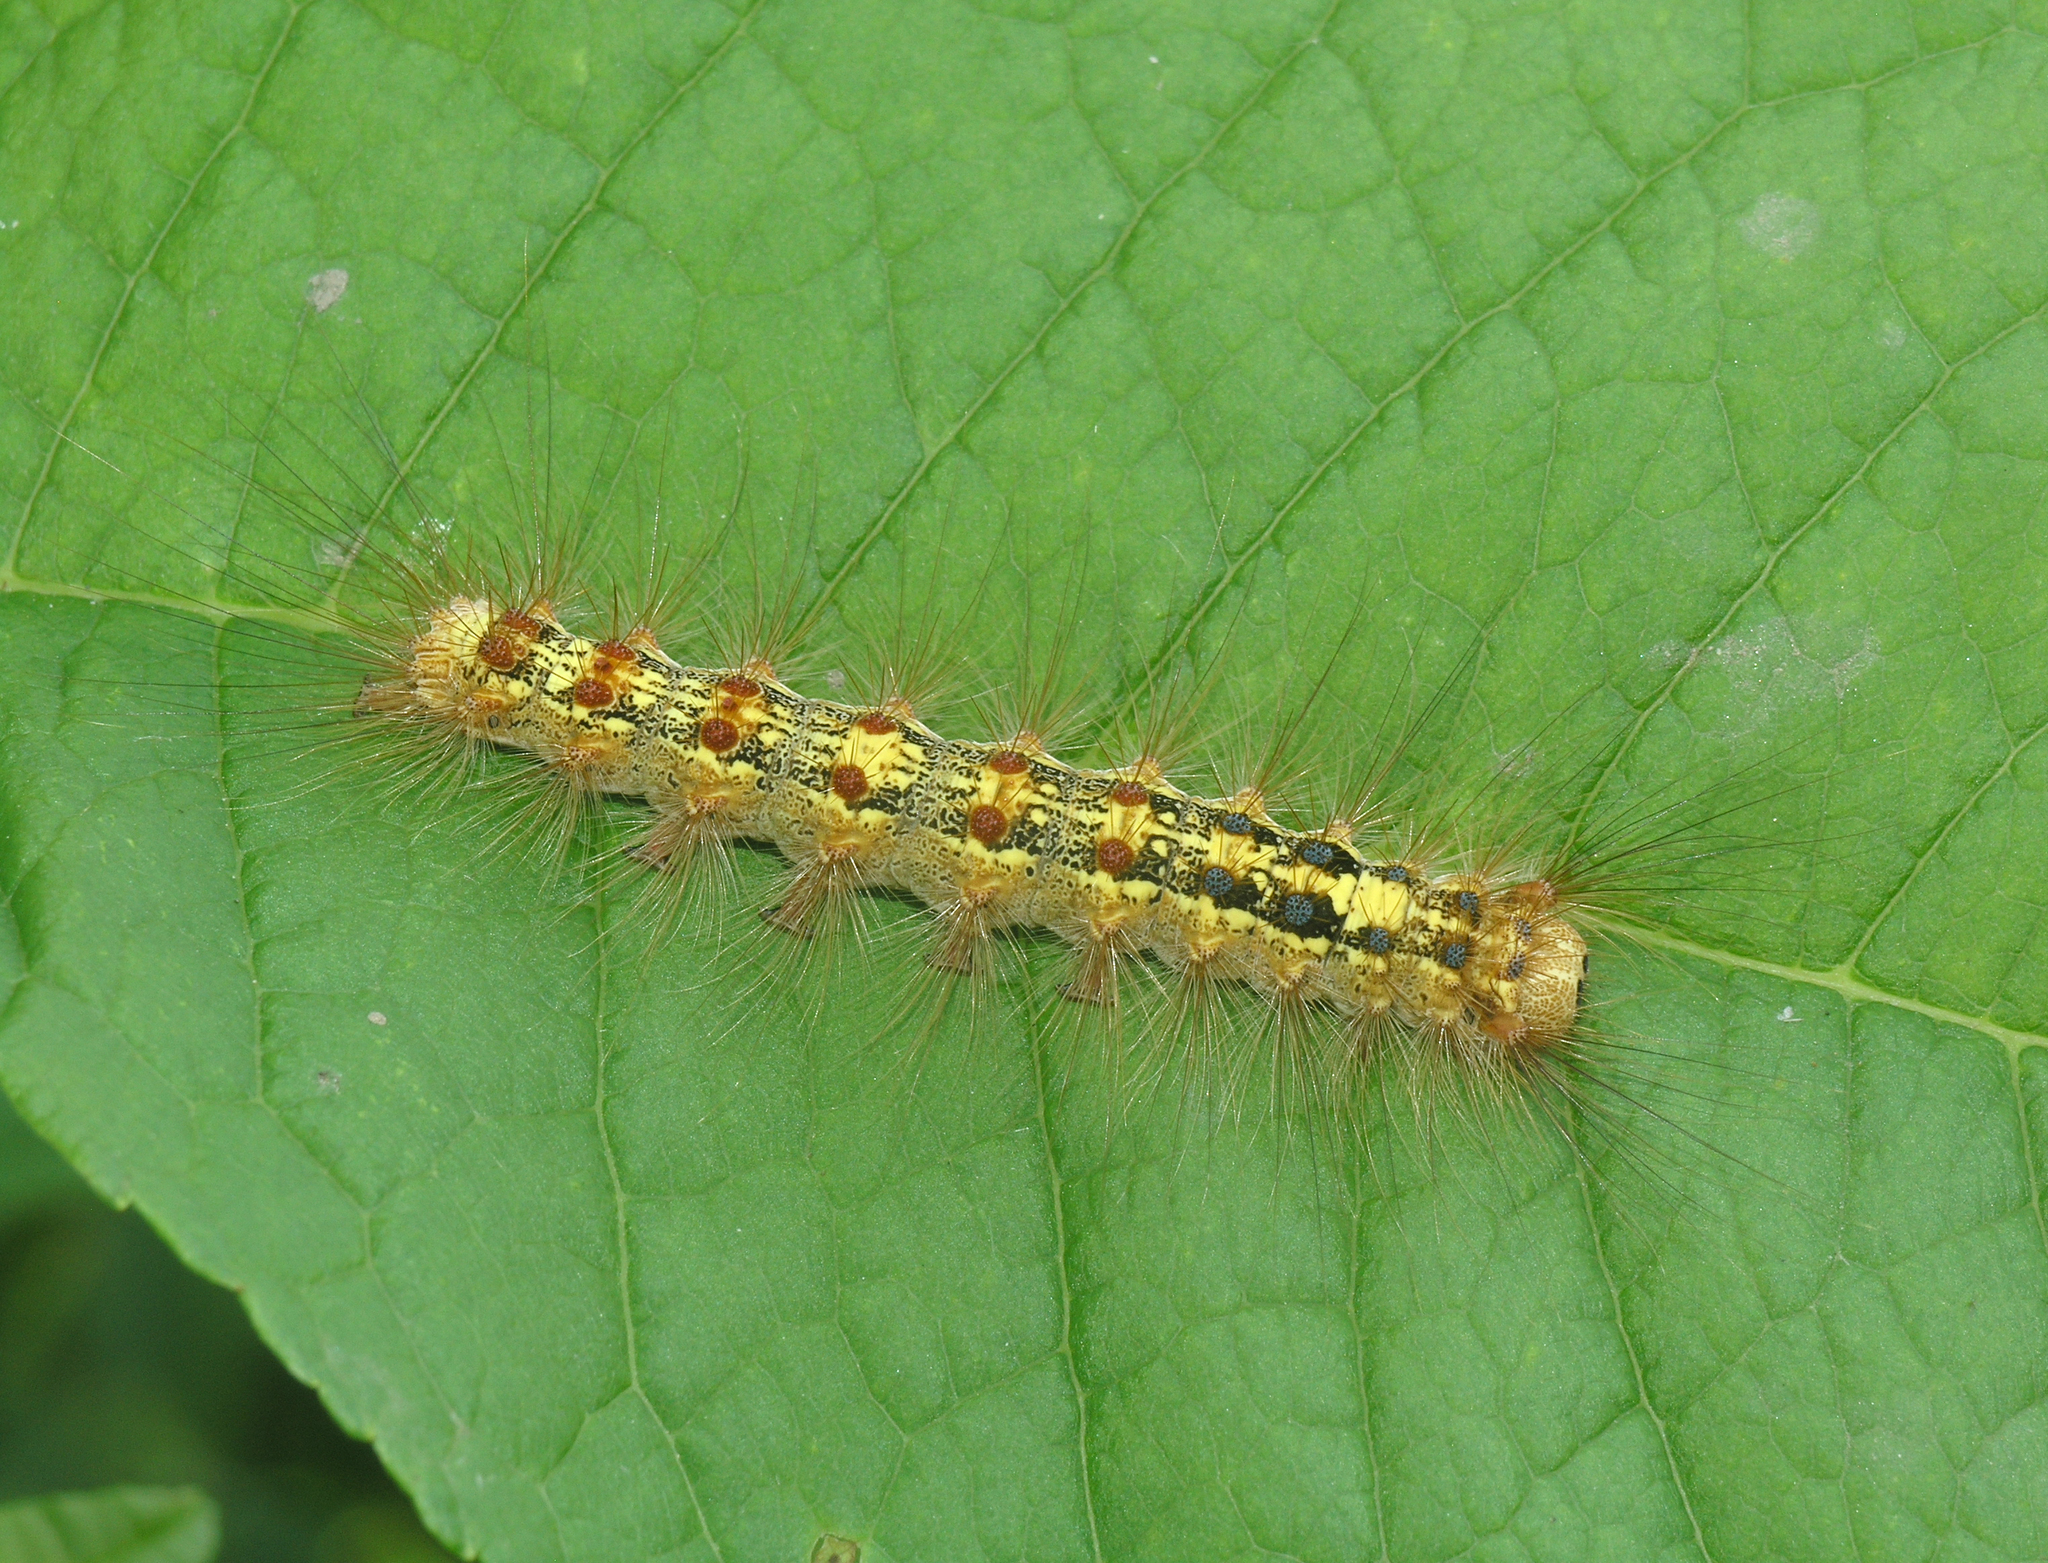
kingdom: Animalia
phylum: Arthropoda
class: Insecta
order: Lepidoptera
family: Erebidae
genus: Lymantria
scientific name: Lymantria dispar
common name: Gypsy moth
